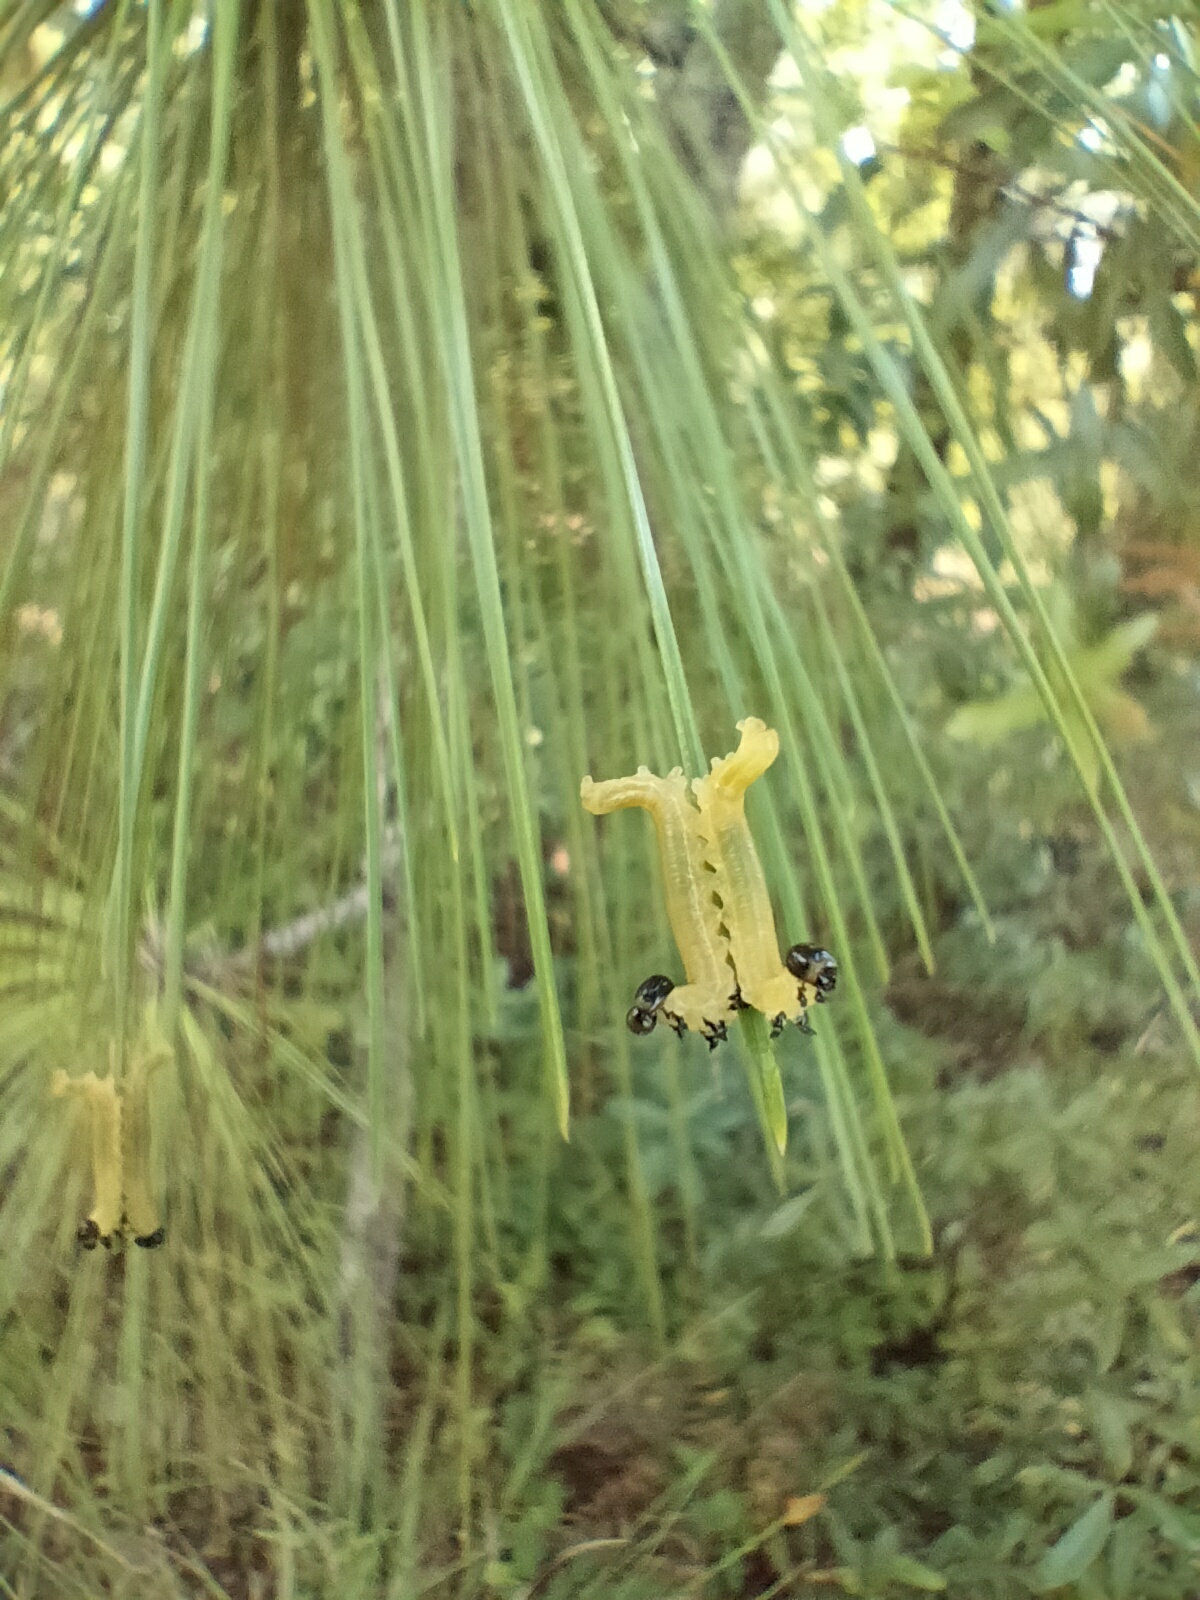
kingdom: Animalia
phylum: Arthropoda
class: Insecta
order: Hymenoptera
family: Diprionidae
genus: Neodiprion
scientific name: Neodiprion
